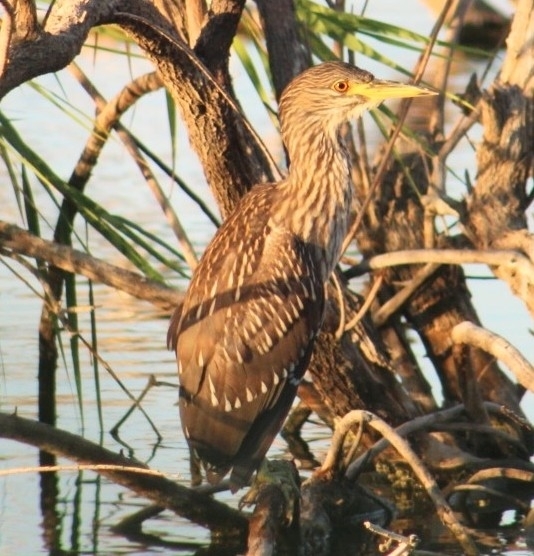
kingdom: Animalia
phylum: Chordata
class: Aves
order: Pelecaniformes
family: Ardeidae
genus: Nycticorax
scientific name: Nycticorax nycticorax
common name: Black-crowned night heron
